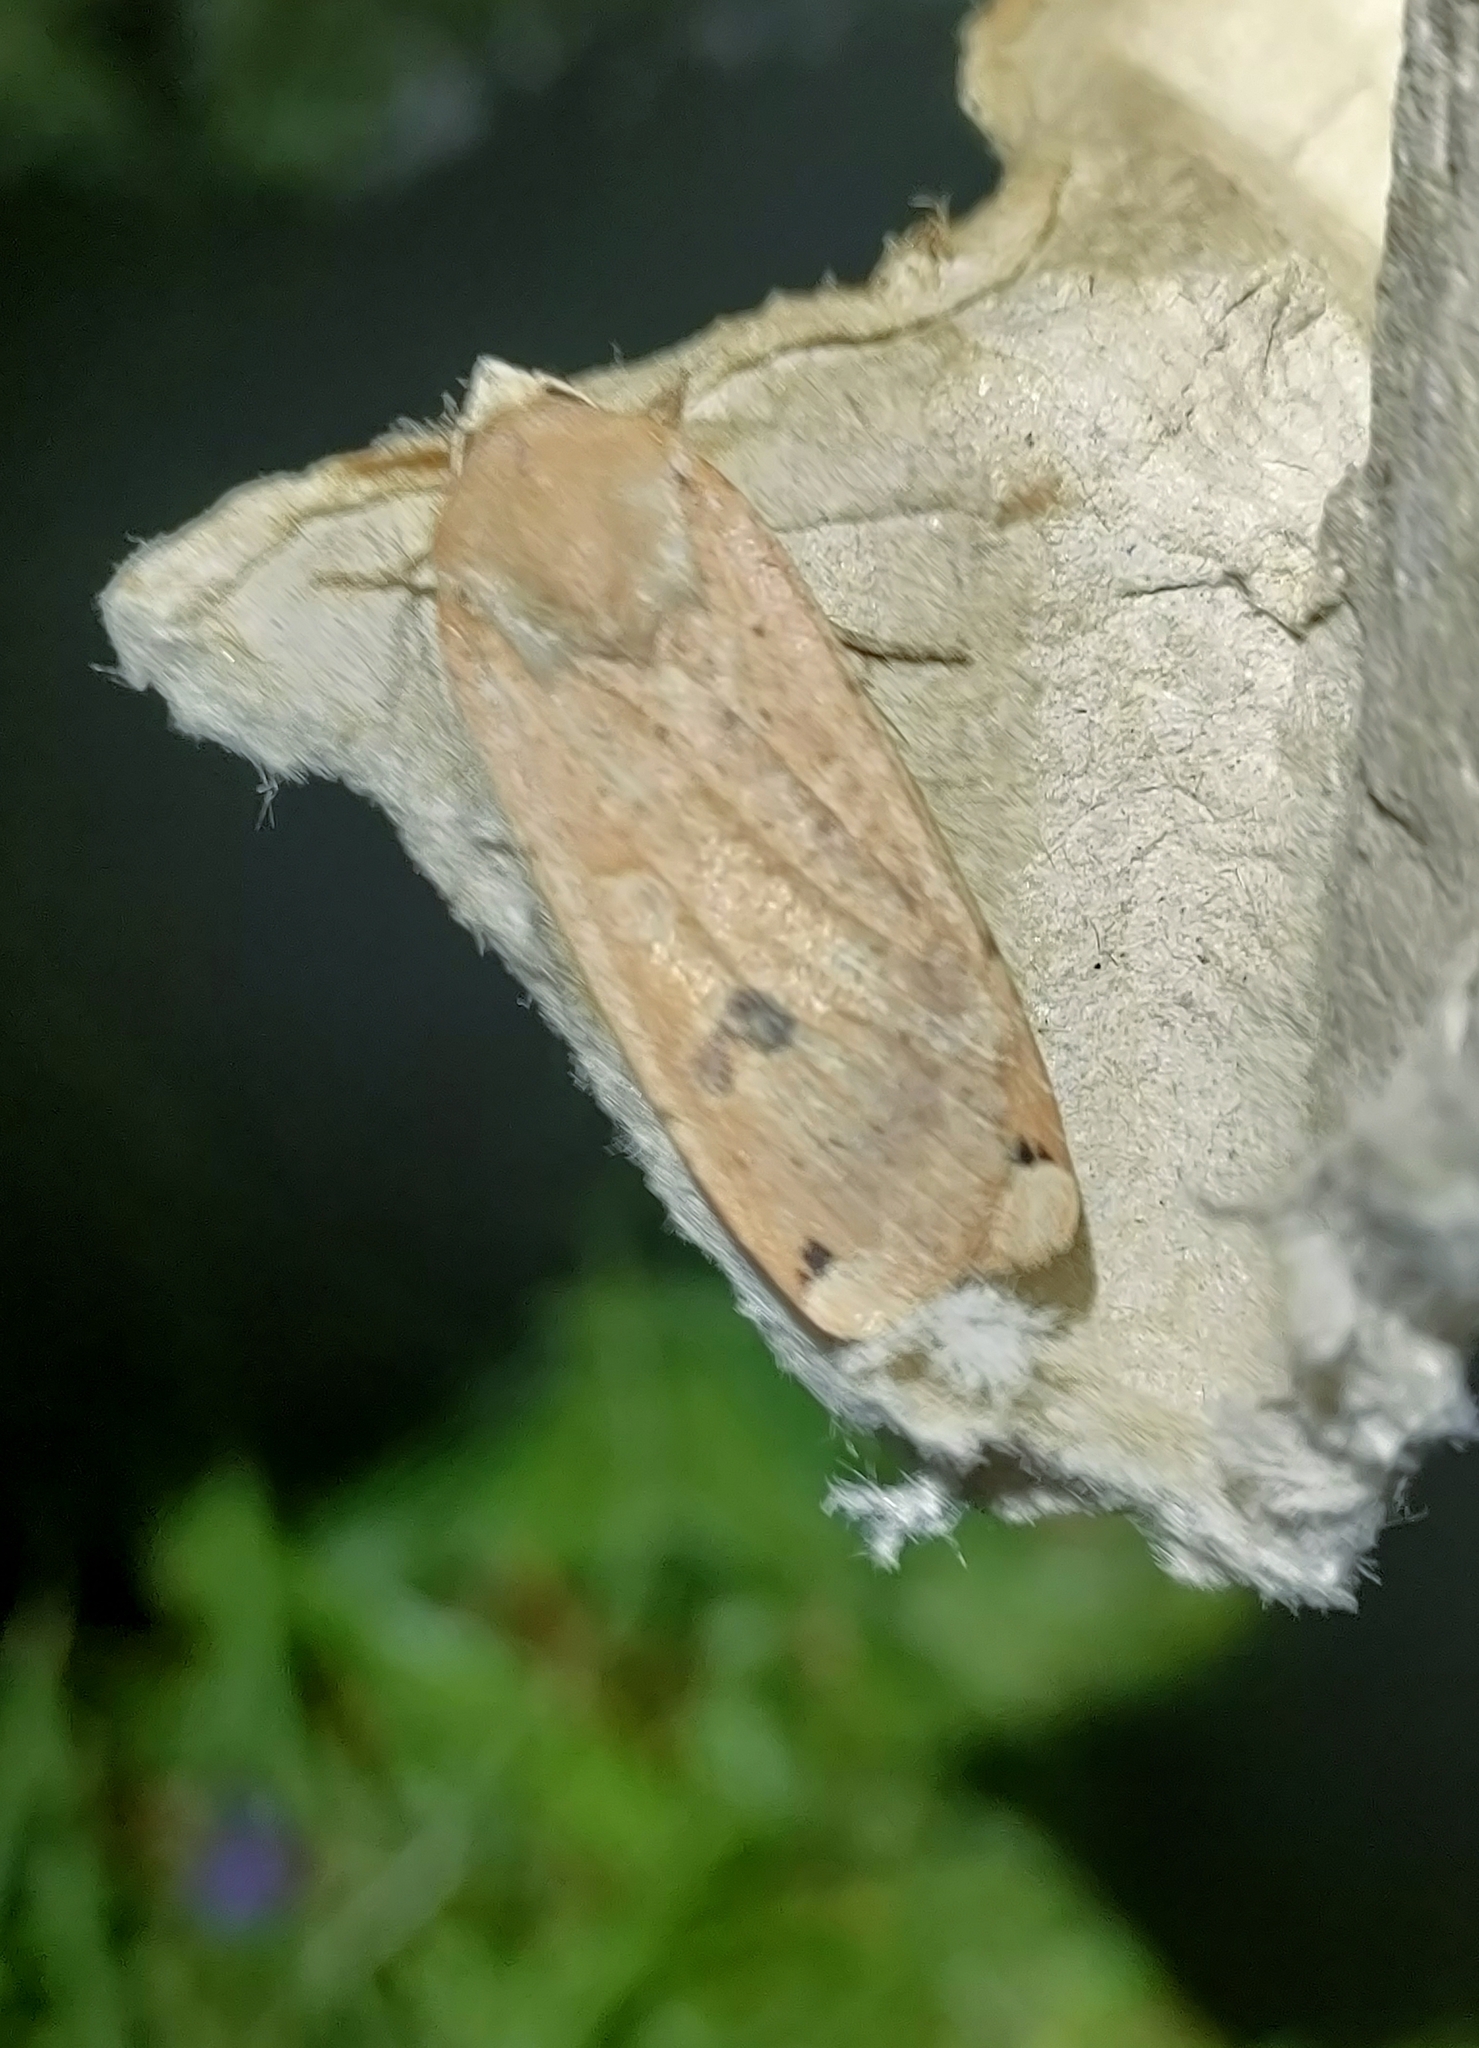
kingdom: Animalia
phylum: Arthropoda
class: Insecta
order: Lepidoptera
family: Noctuidae
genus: Noctua
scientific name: Noctua pronuba
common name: Large yellow underwing
